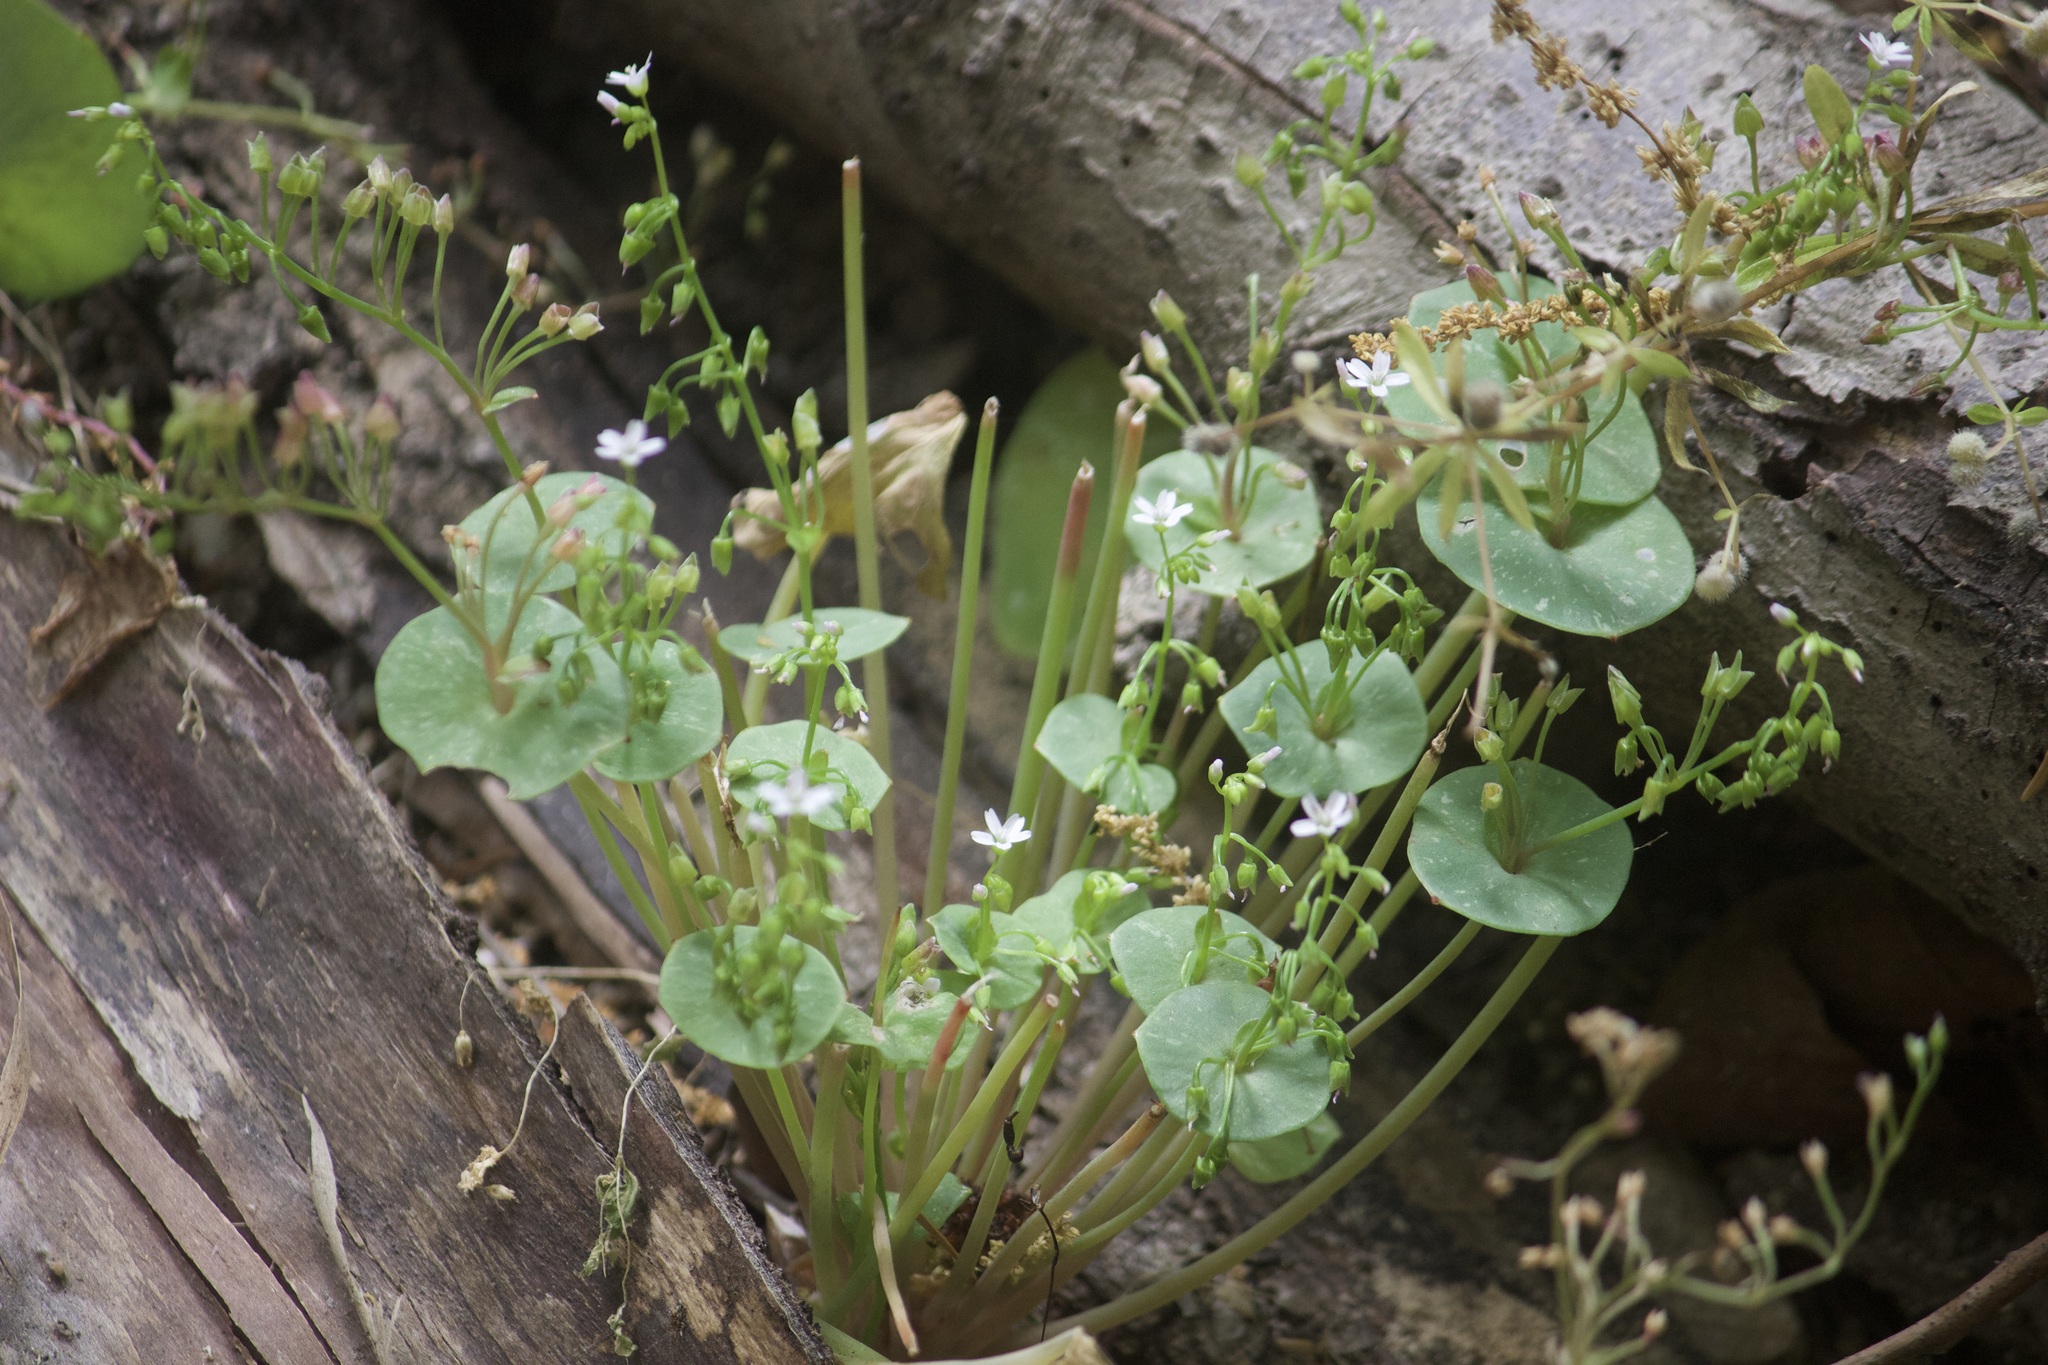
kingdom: Plantae
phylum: Tracheophyta
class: Magnoliopsida
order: Caryophyllales
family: Montiaceae
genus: Claytonia
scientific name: Claytonia perfoliata
